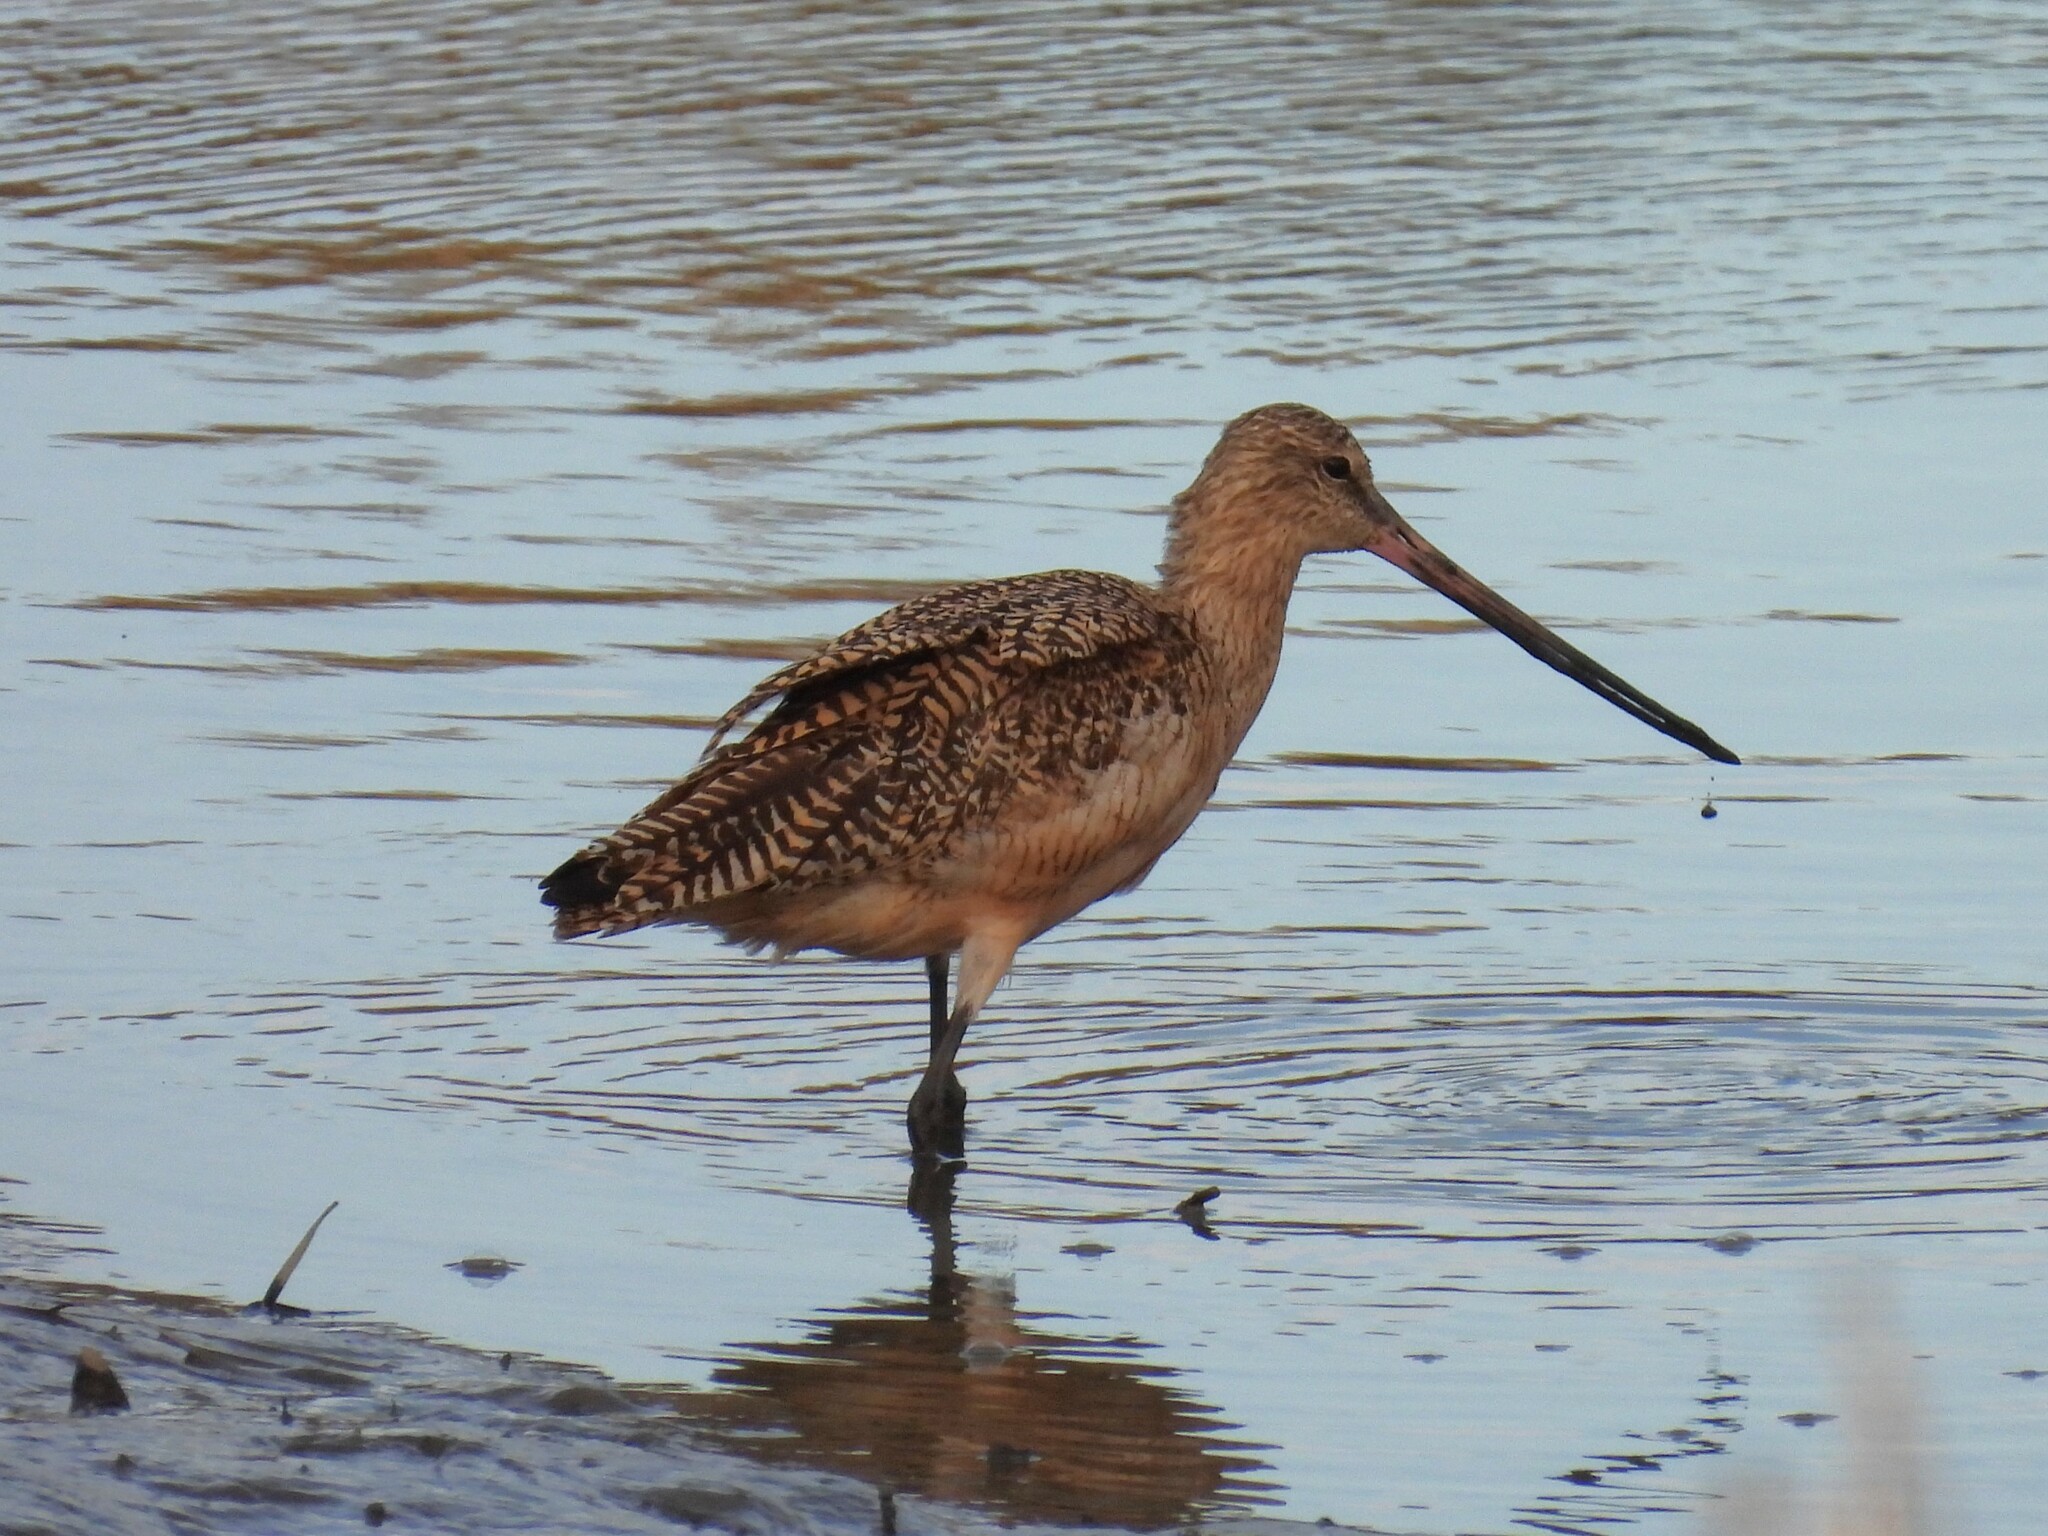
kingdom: Animalia
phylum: Chordata
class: Aves
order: Charadriiformes
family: Scolopacidae
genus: Limosa
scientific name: Limosa fedoa
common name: Marbled godwit
